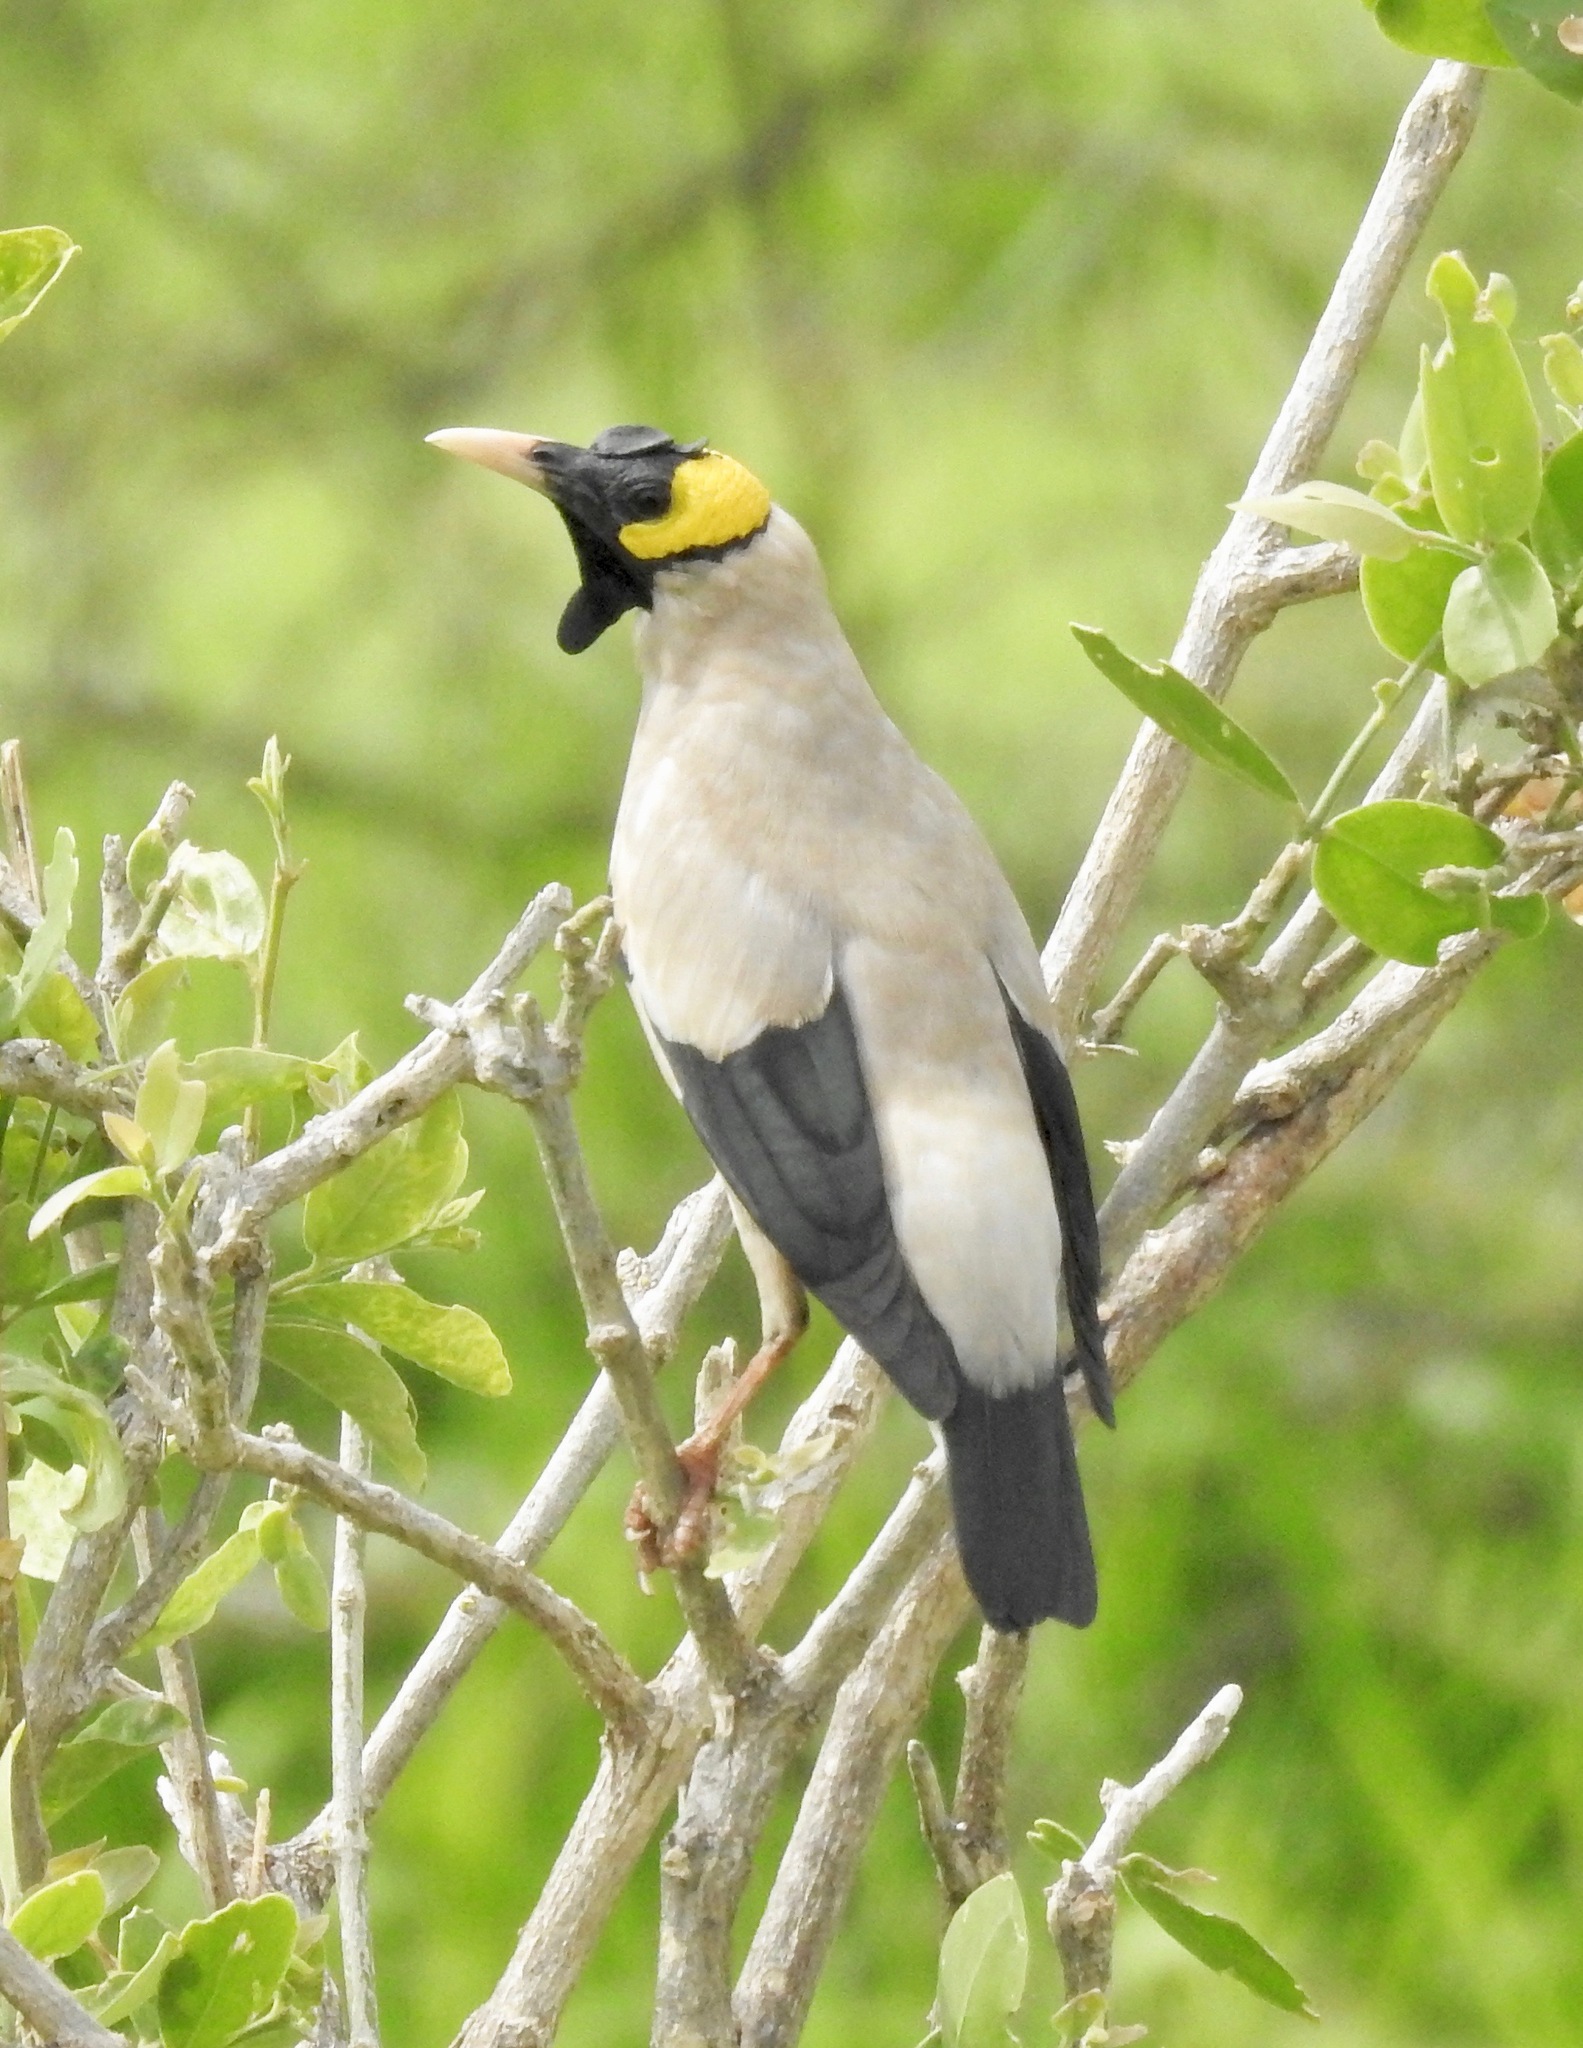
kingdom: Animalia
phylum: Chordata
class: Aves
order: Passeriformes
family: Sturnidae
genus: Creatophora
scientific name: Creatophora cinerea
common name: Wattled starling
